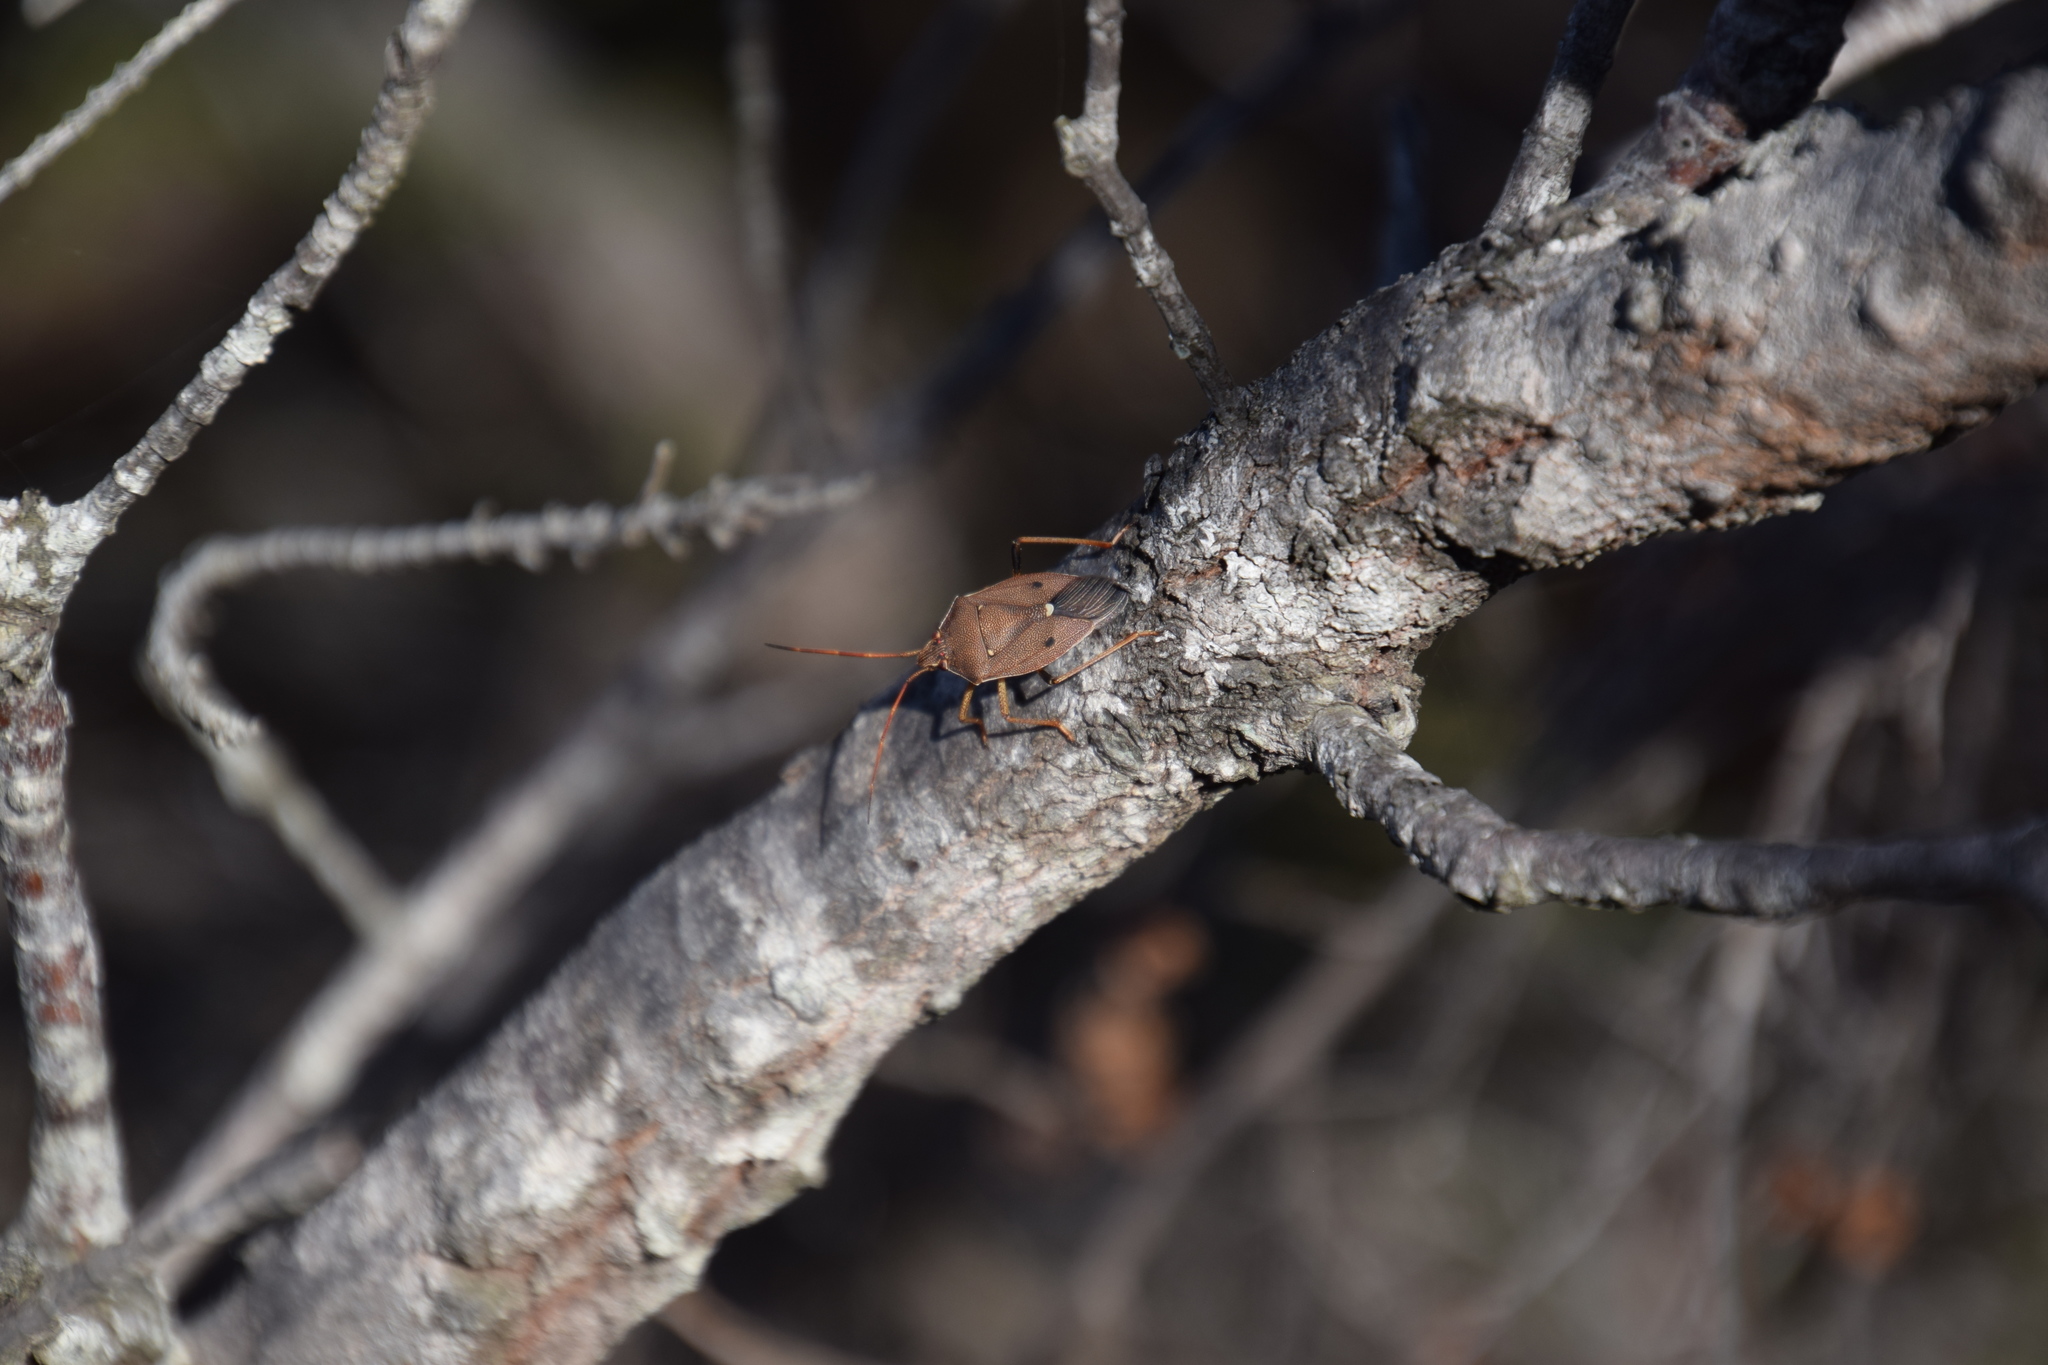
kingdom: Animalia
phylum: Arthropoda
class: Insecta
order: Hemiptera
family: Pentatomidae
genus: Poecilometis
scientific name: Poecilometis
